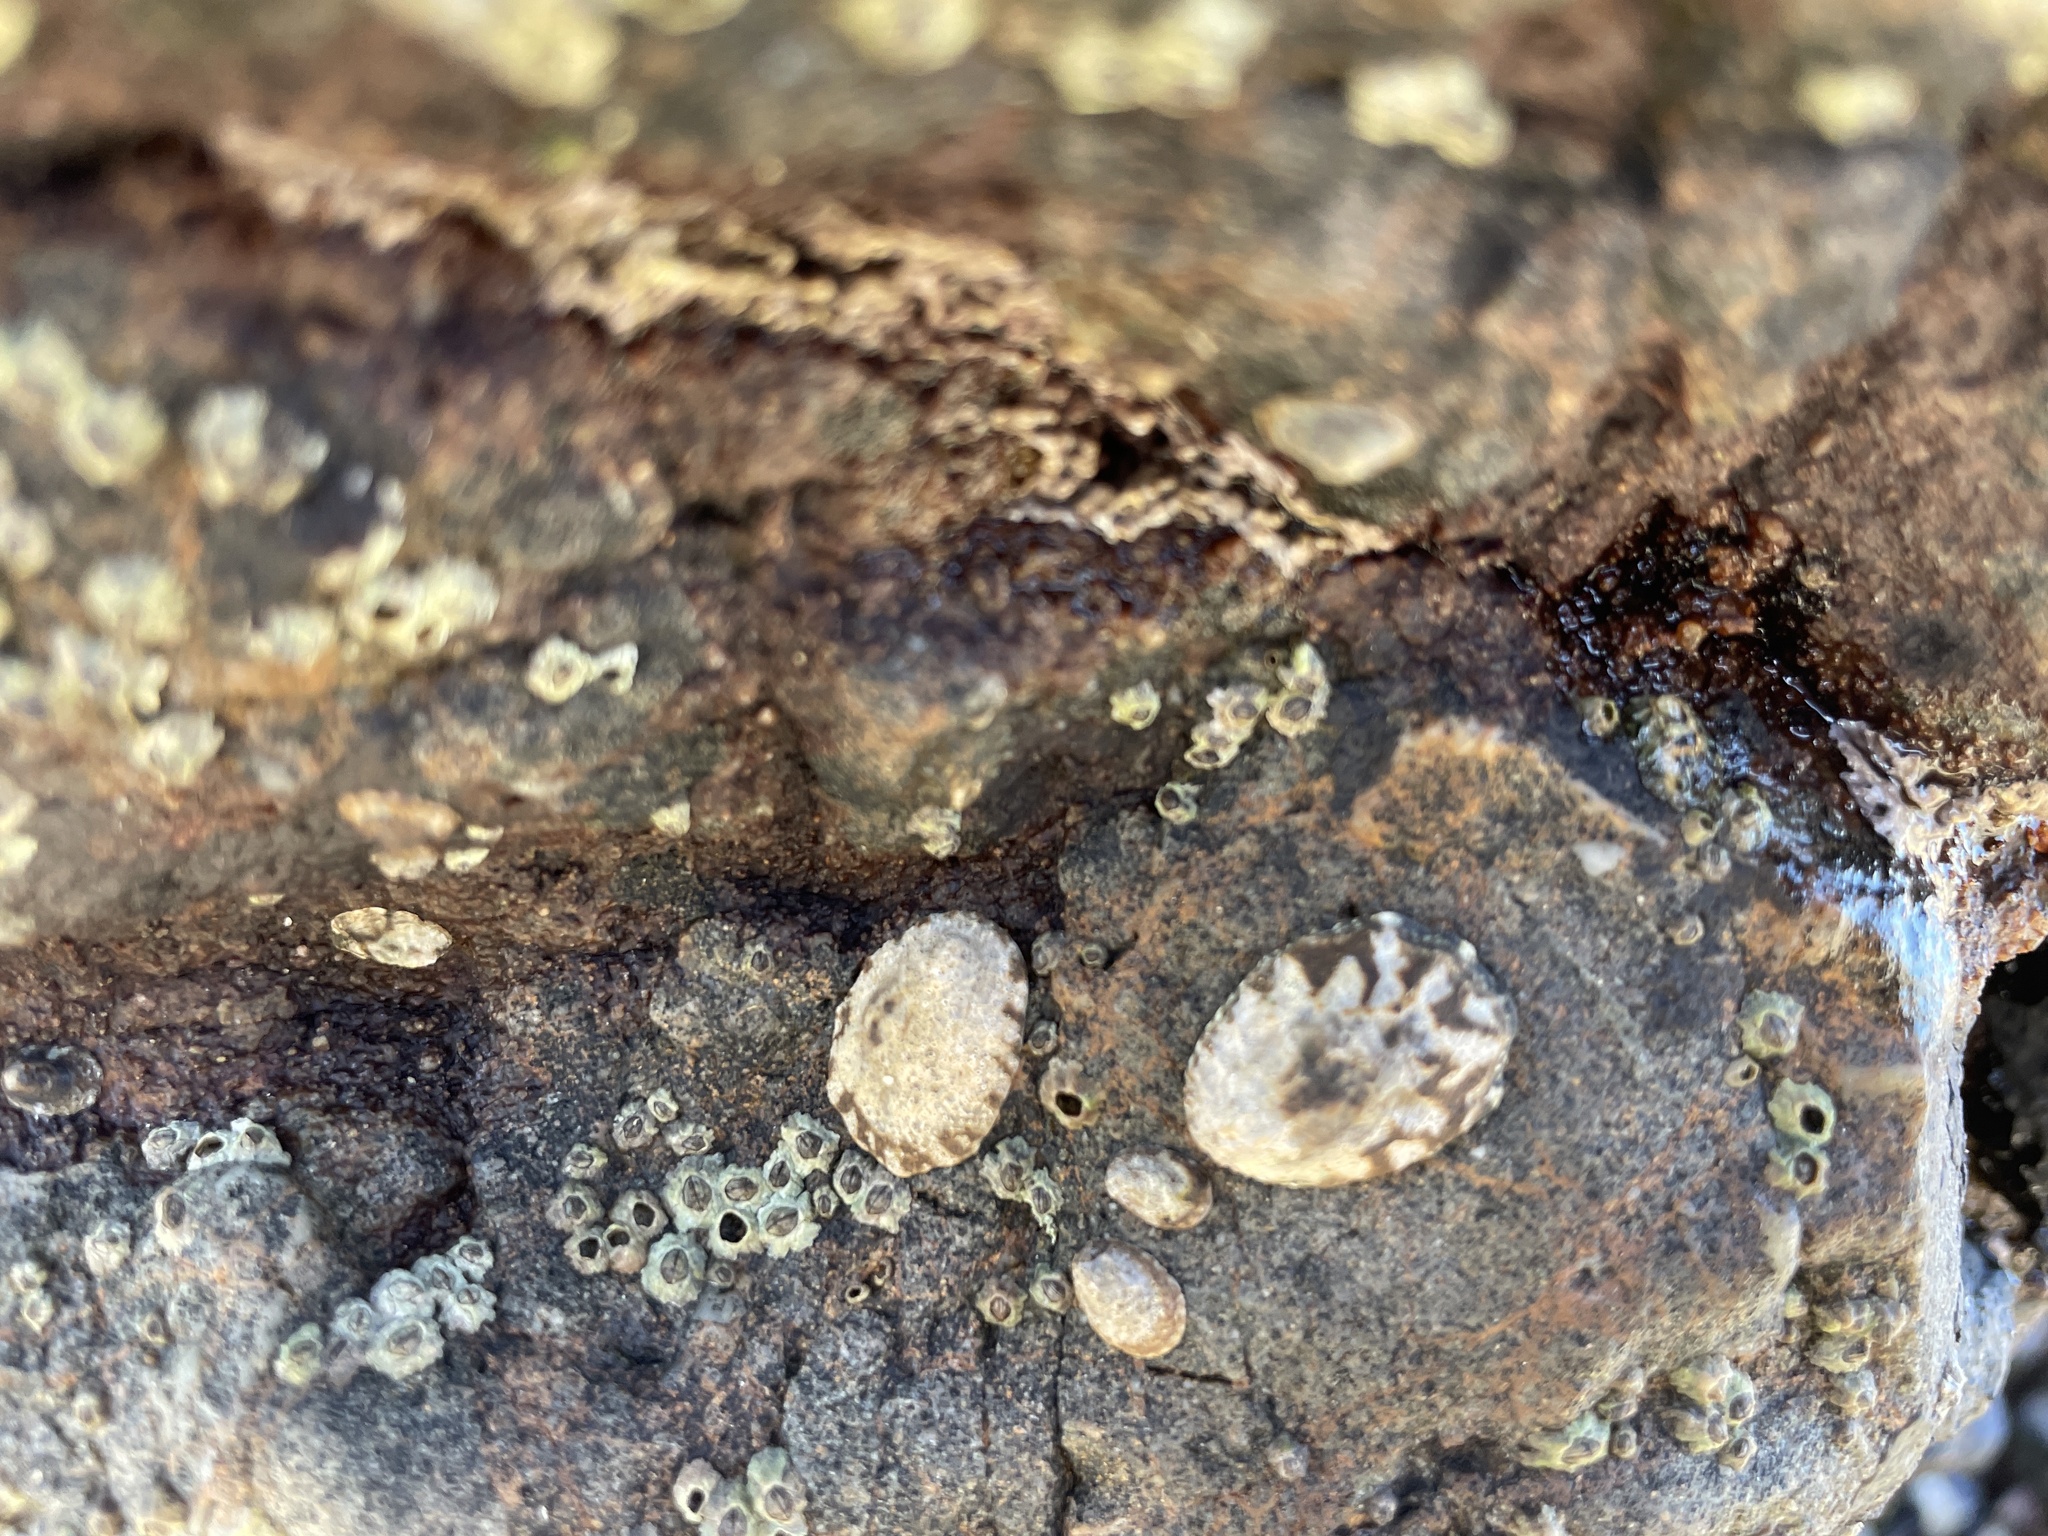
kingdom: Animalia
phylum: Mollusca
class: Gastropoda
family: Lottiidae
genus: Lottia
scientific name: Lottia digitalis
